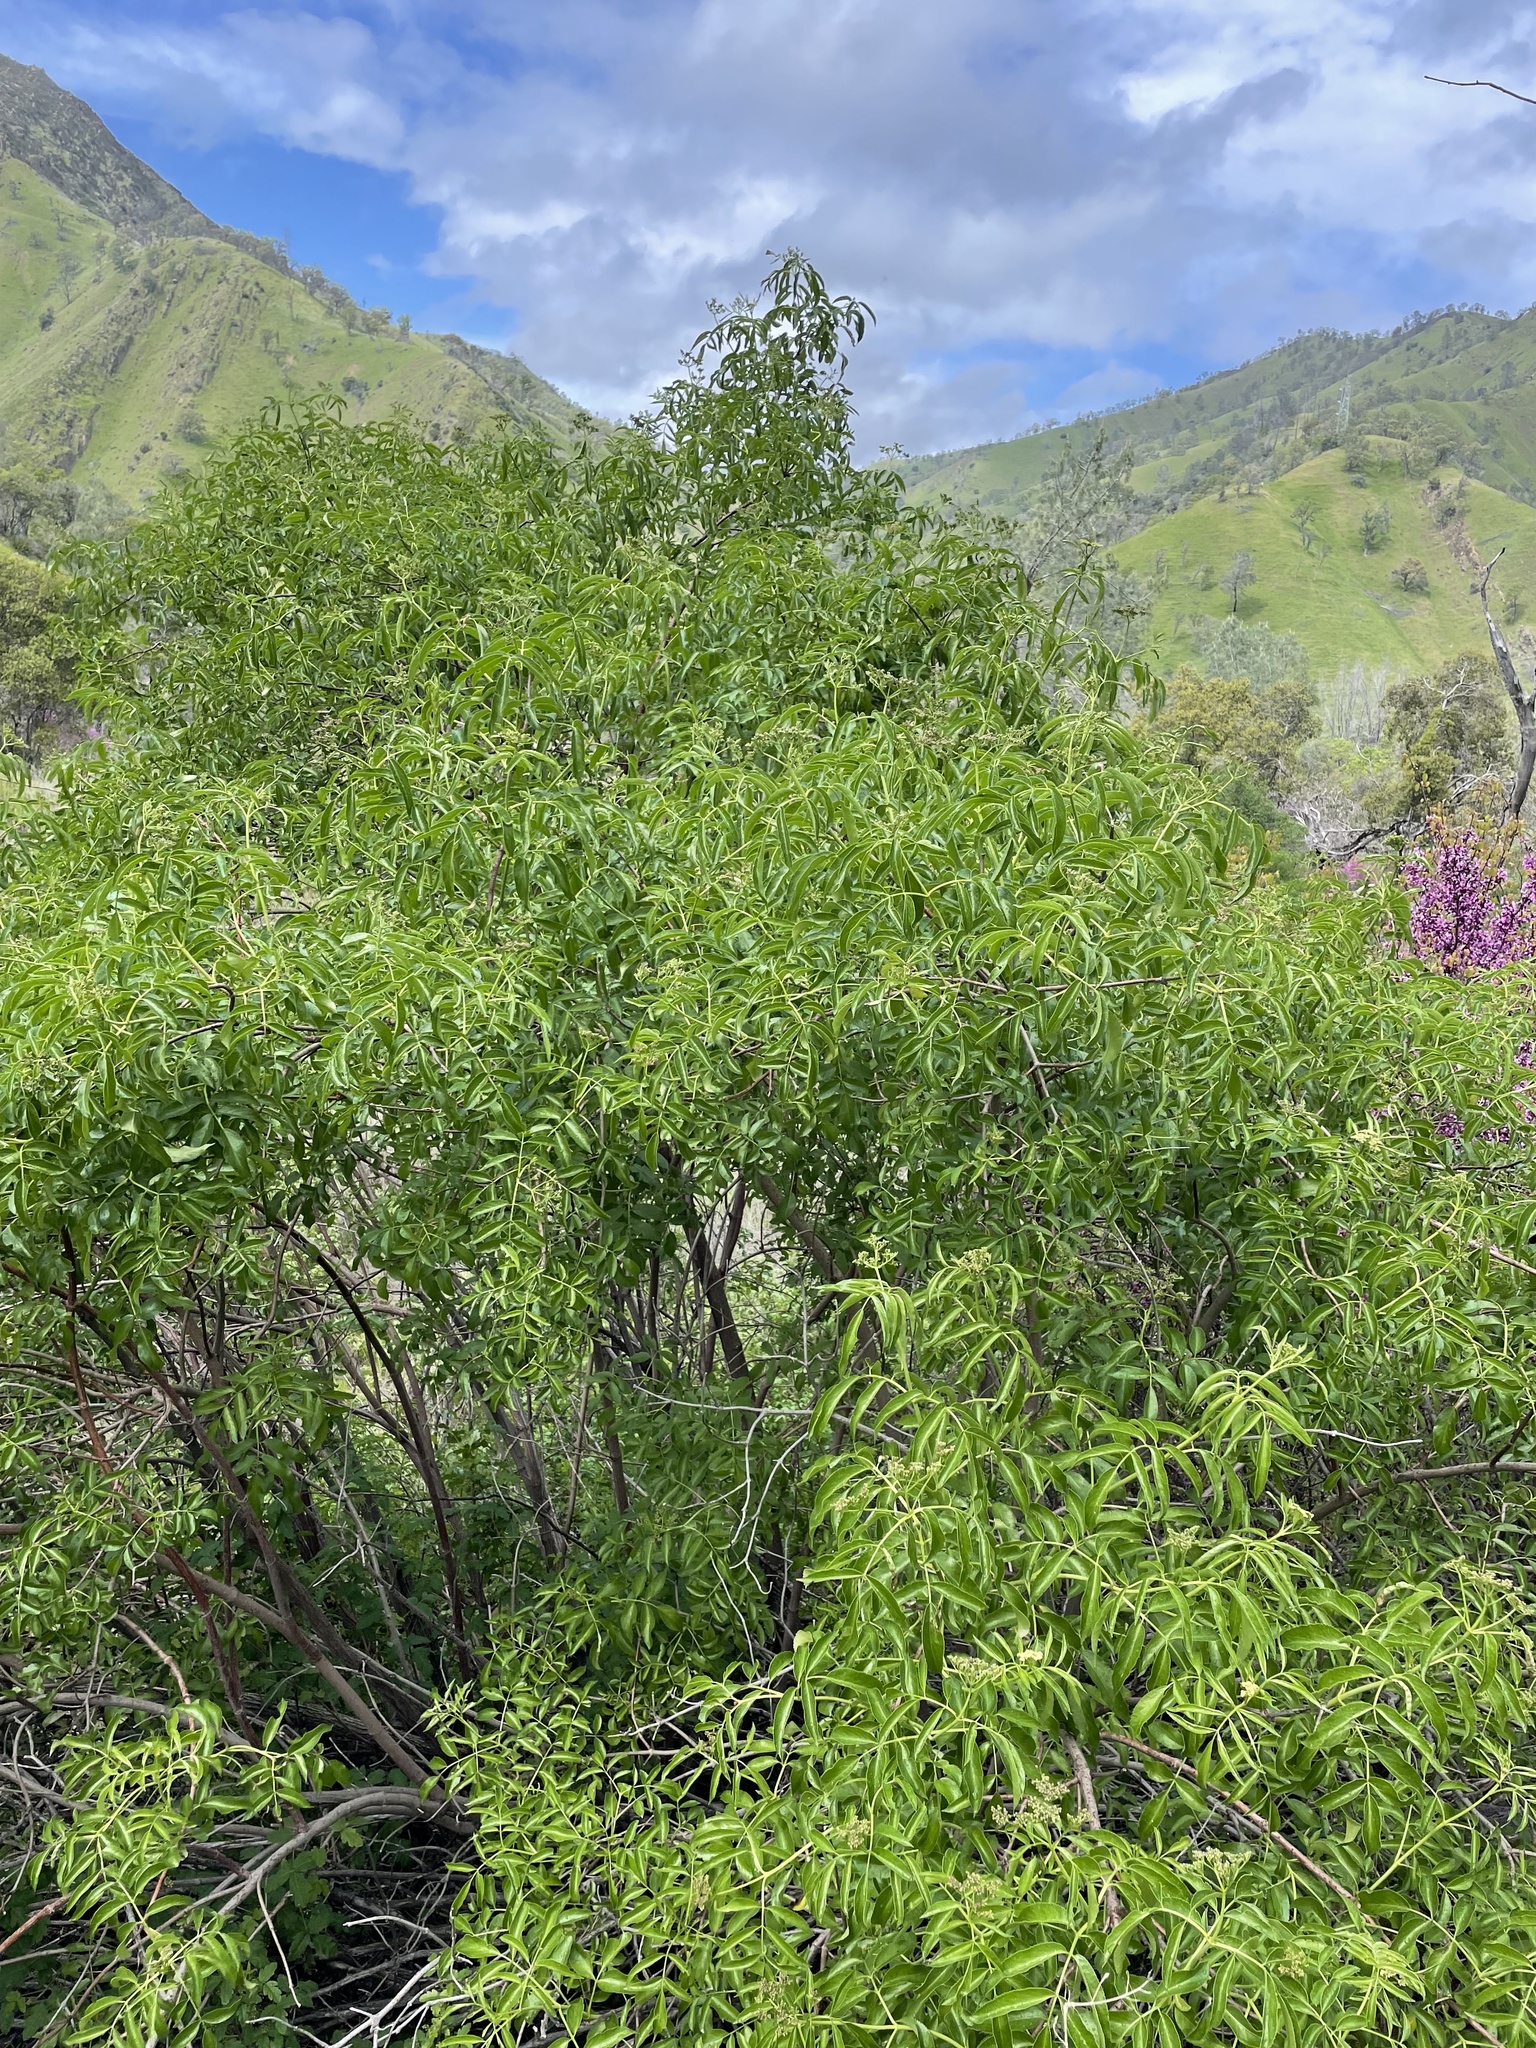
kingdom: Plantae
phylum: Tracheophyta
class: Magnoliopsida
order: Dipsacales
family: Viburnaceae
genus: Sambucus
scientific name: Sambucus cerulea
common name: Blue elder
